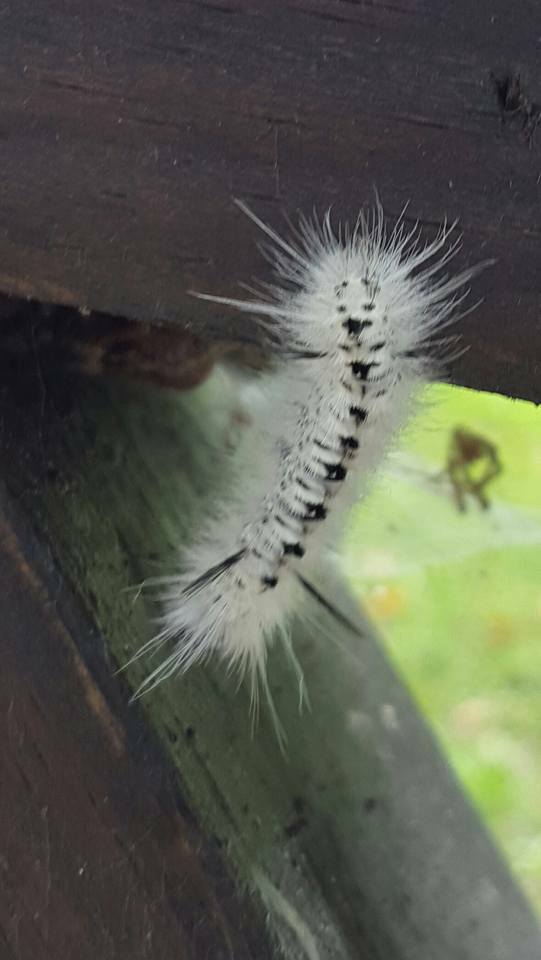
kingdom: Animalia
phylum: Arthropoda
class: Insecta
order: Lepidoptera
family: Erebidae
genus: Lophocampa
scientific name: Lophocampa caryae
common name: Hickory tussock moth
